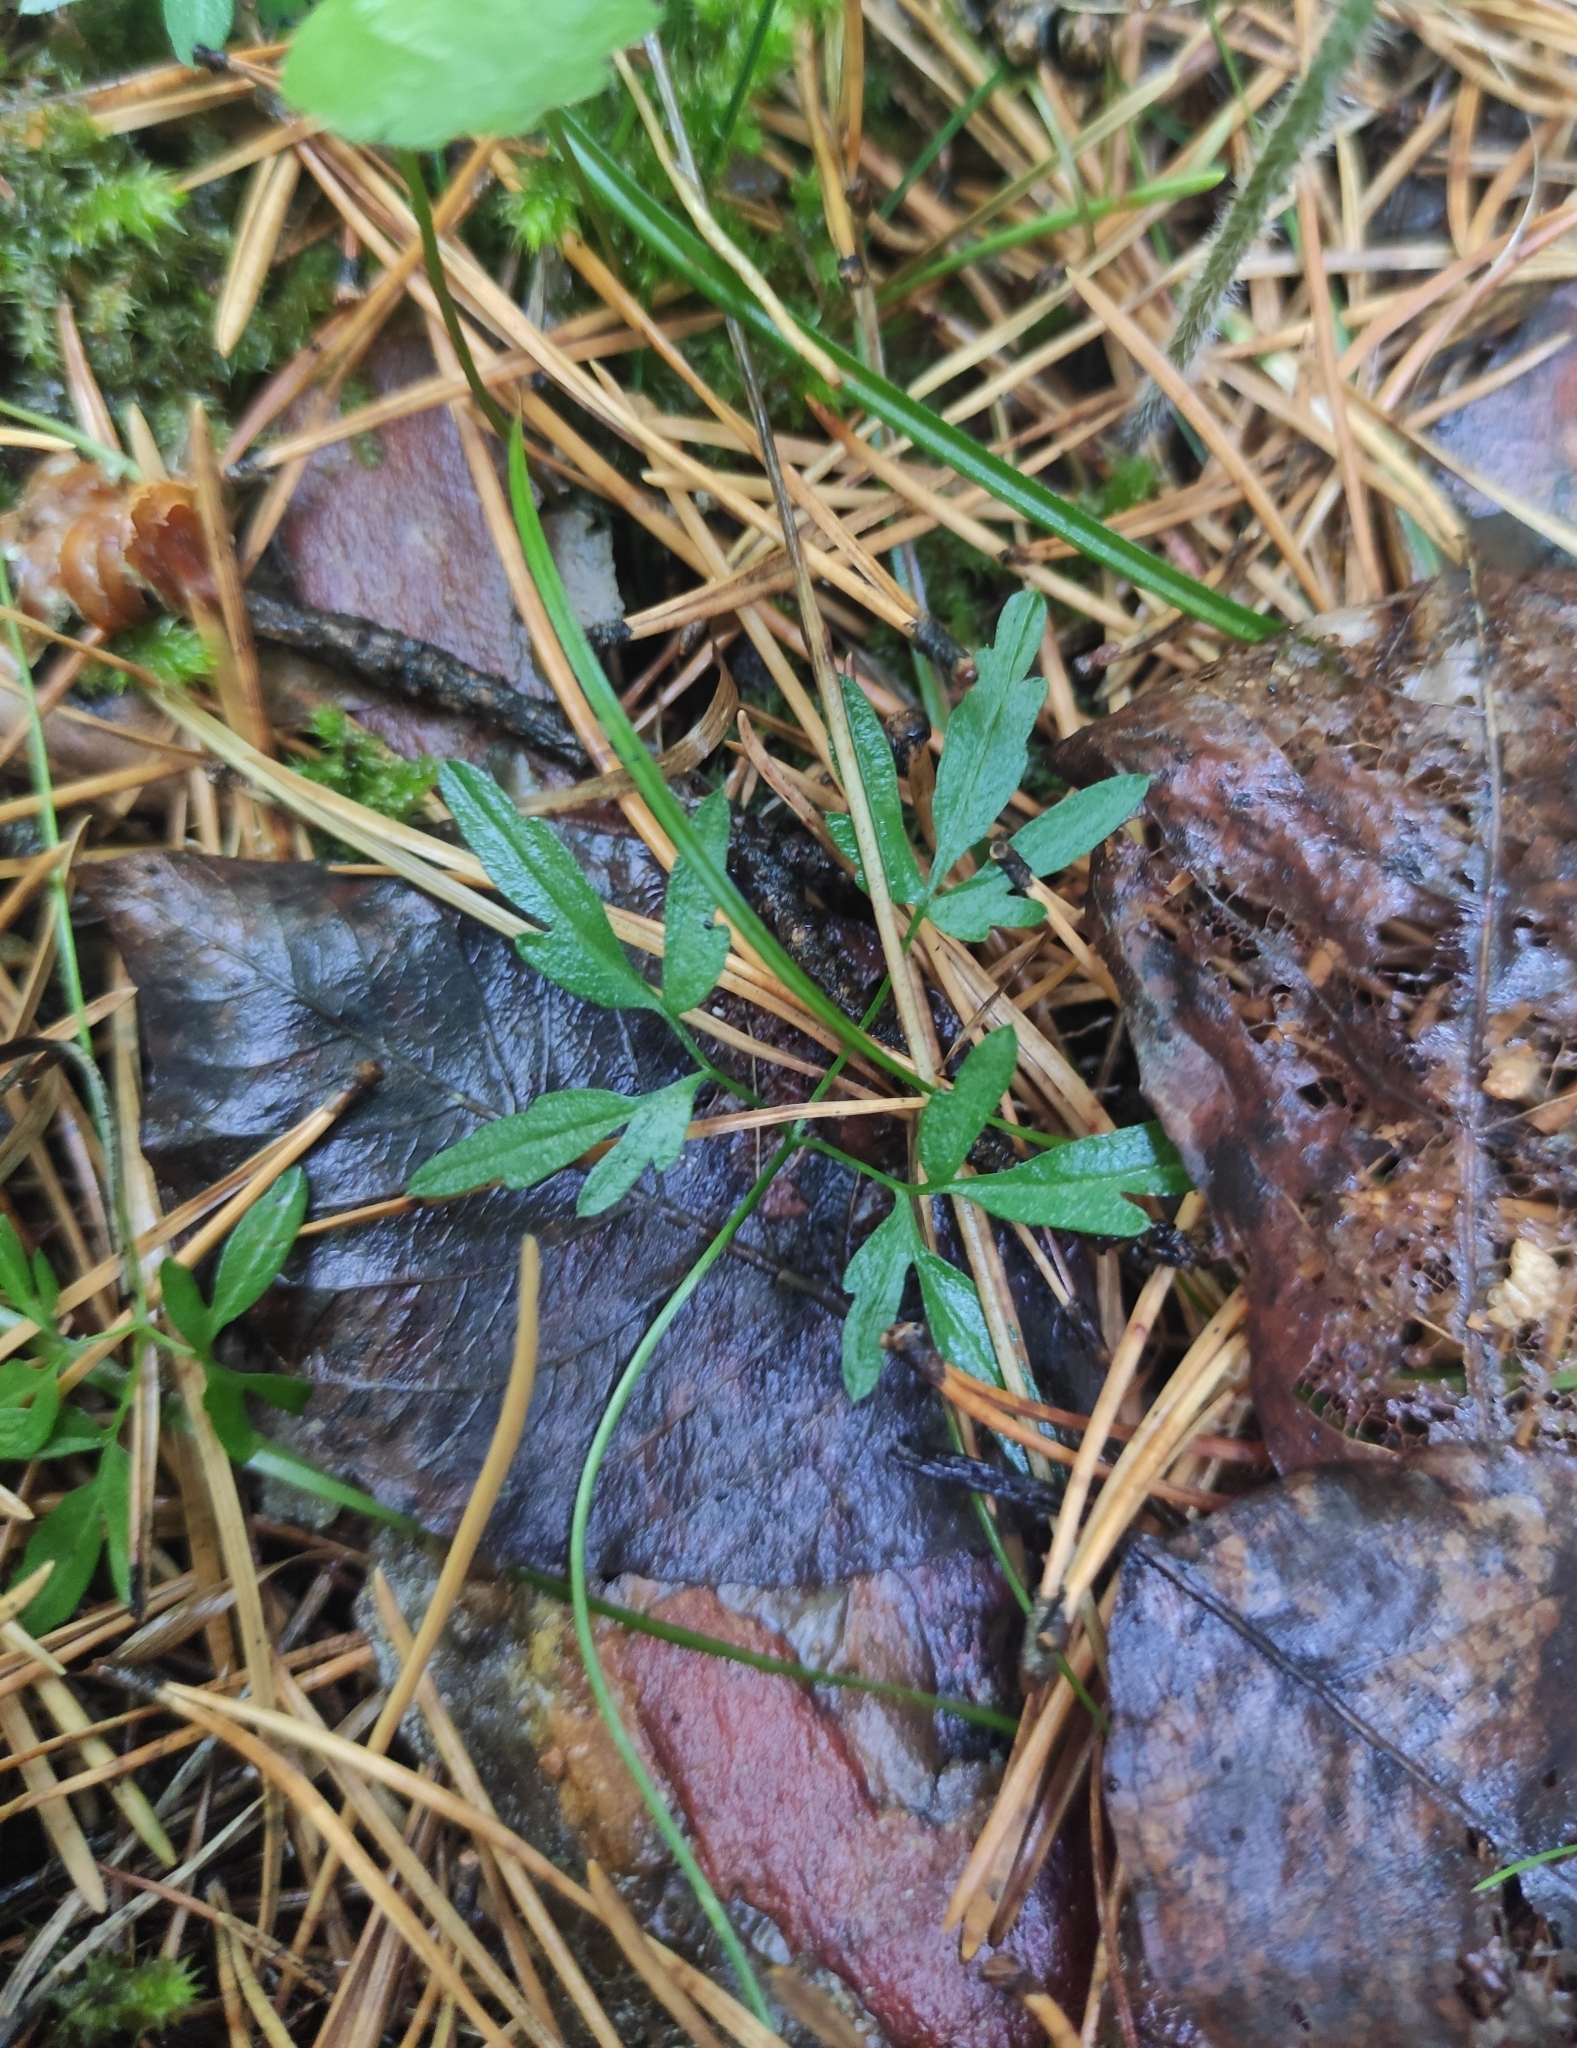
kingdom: Plantae
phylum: Tracheophyta
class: Magnoliopsida
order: Brassicales
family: Brassicaceae
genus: Cardamine
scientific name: Cardamine trifida
